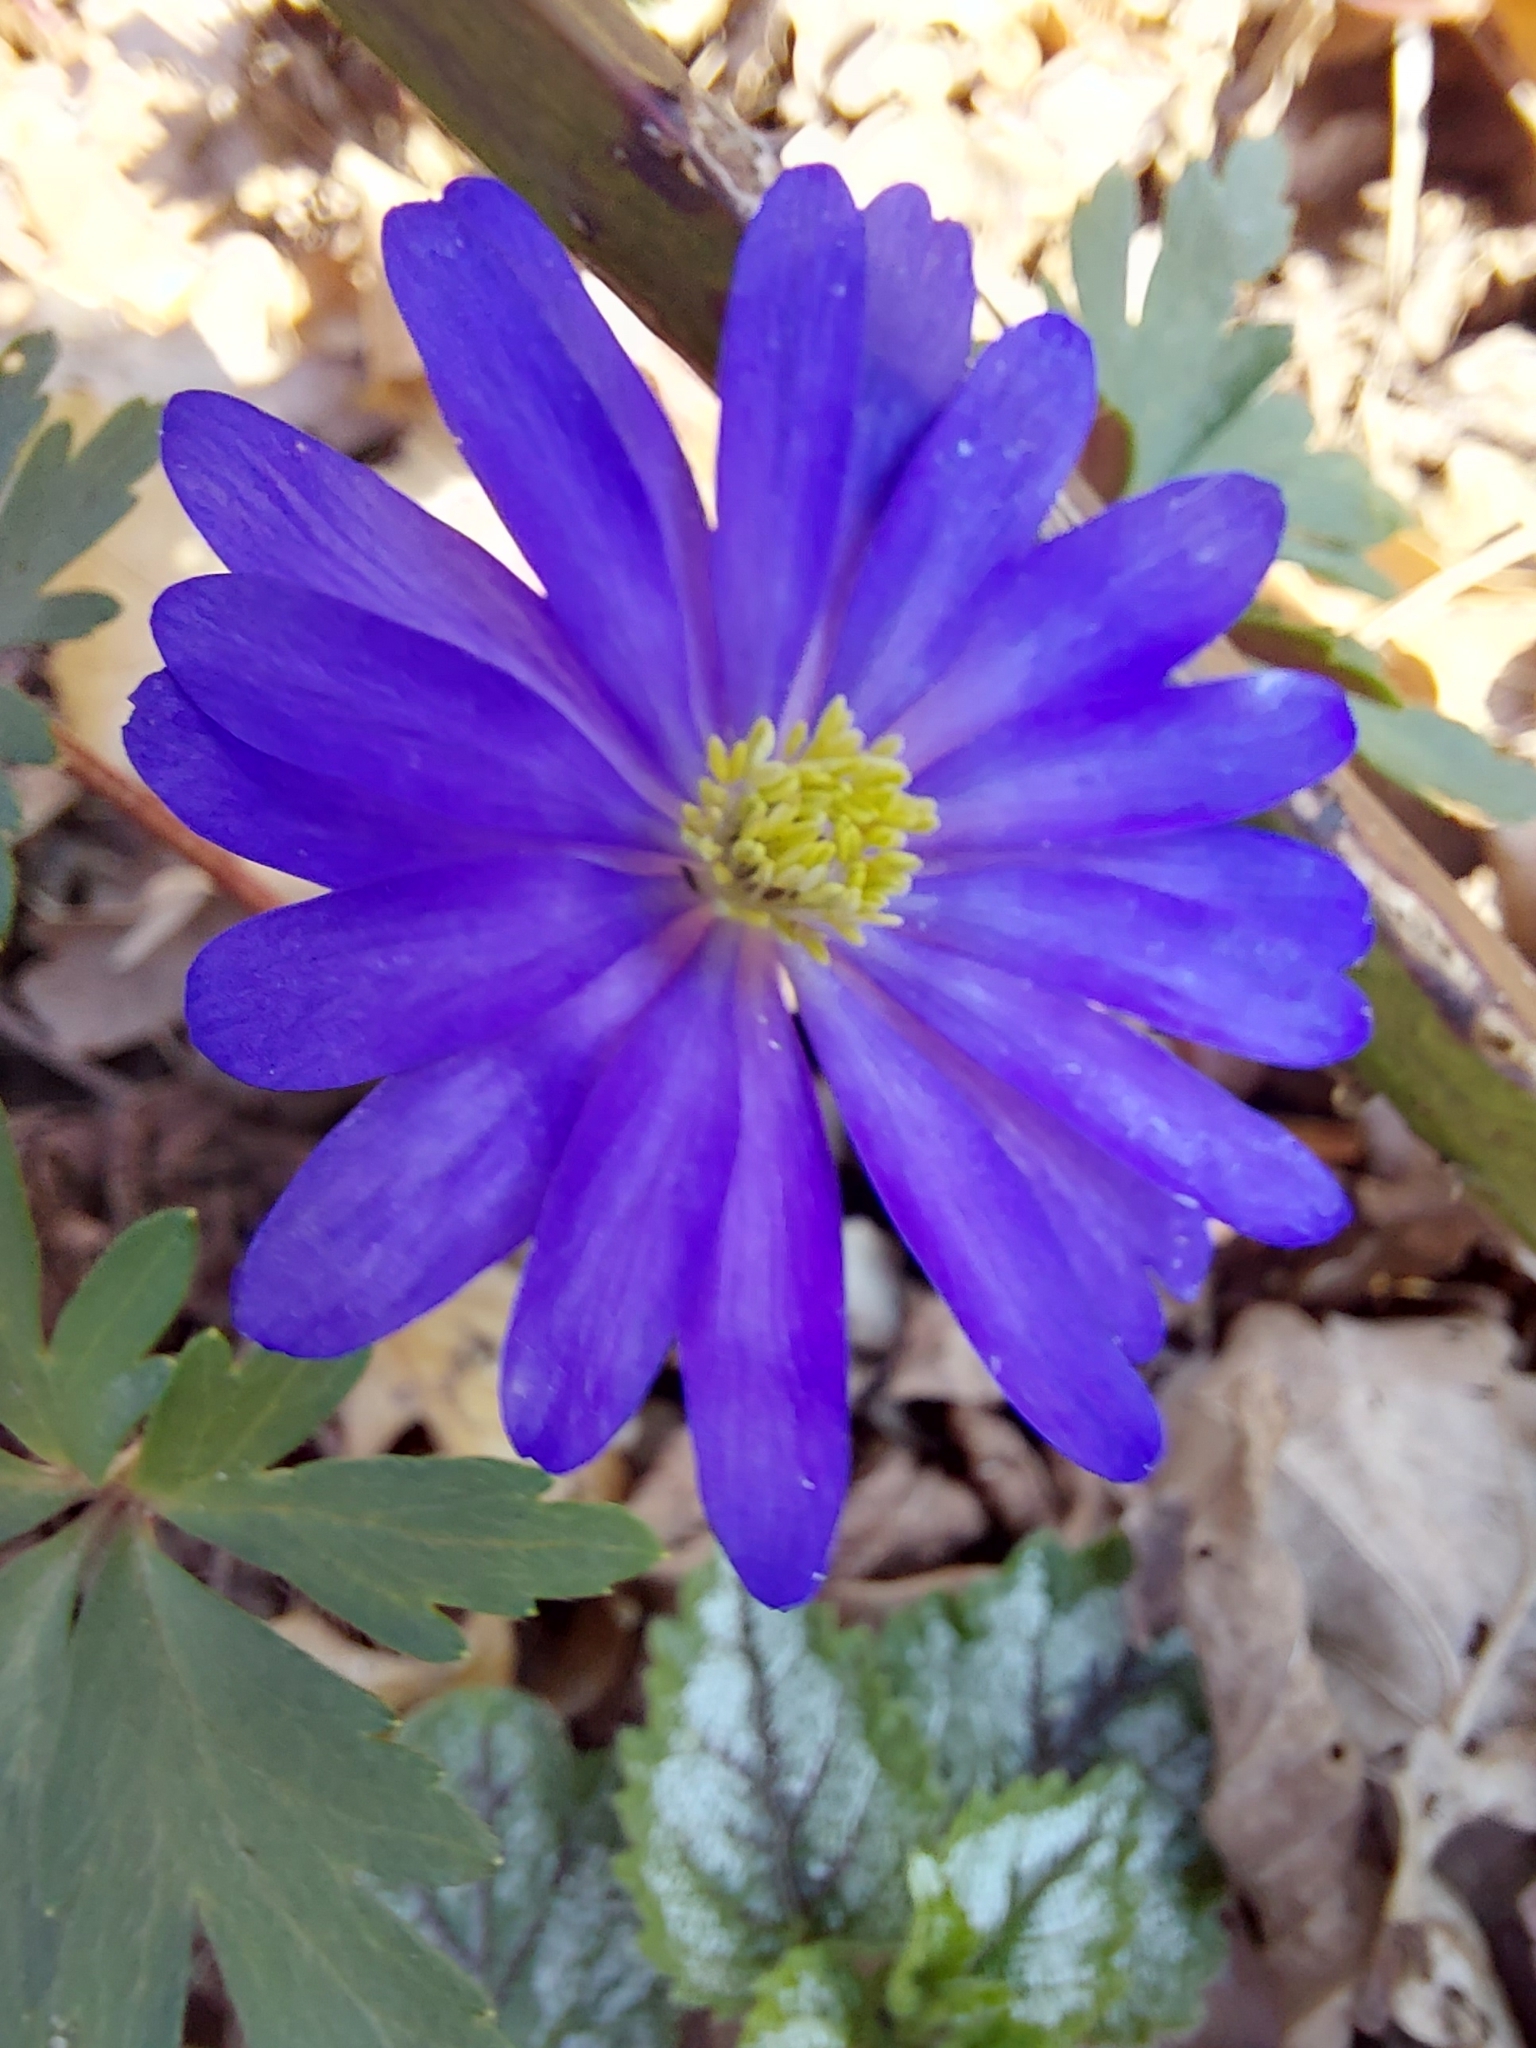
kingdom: Plantae
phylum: Tracheophyta
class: Magnoliopsida
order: Ranunculales
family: Ranunculaceae
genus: Anemone
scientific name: Anemone blanda
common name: Balkan anemone
